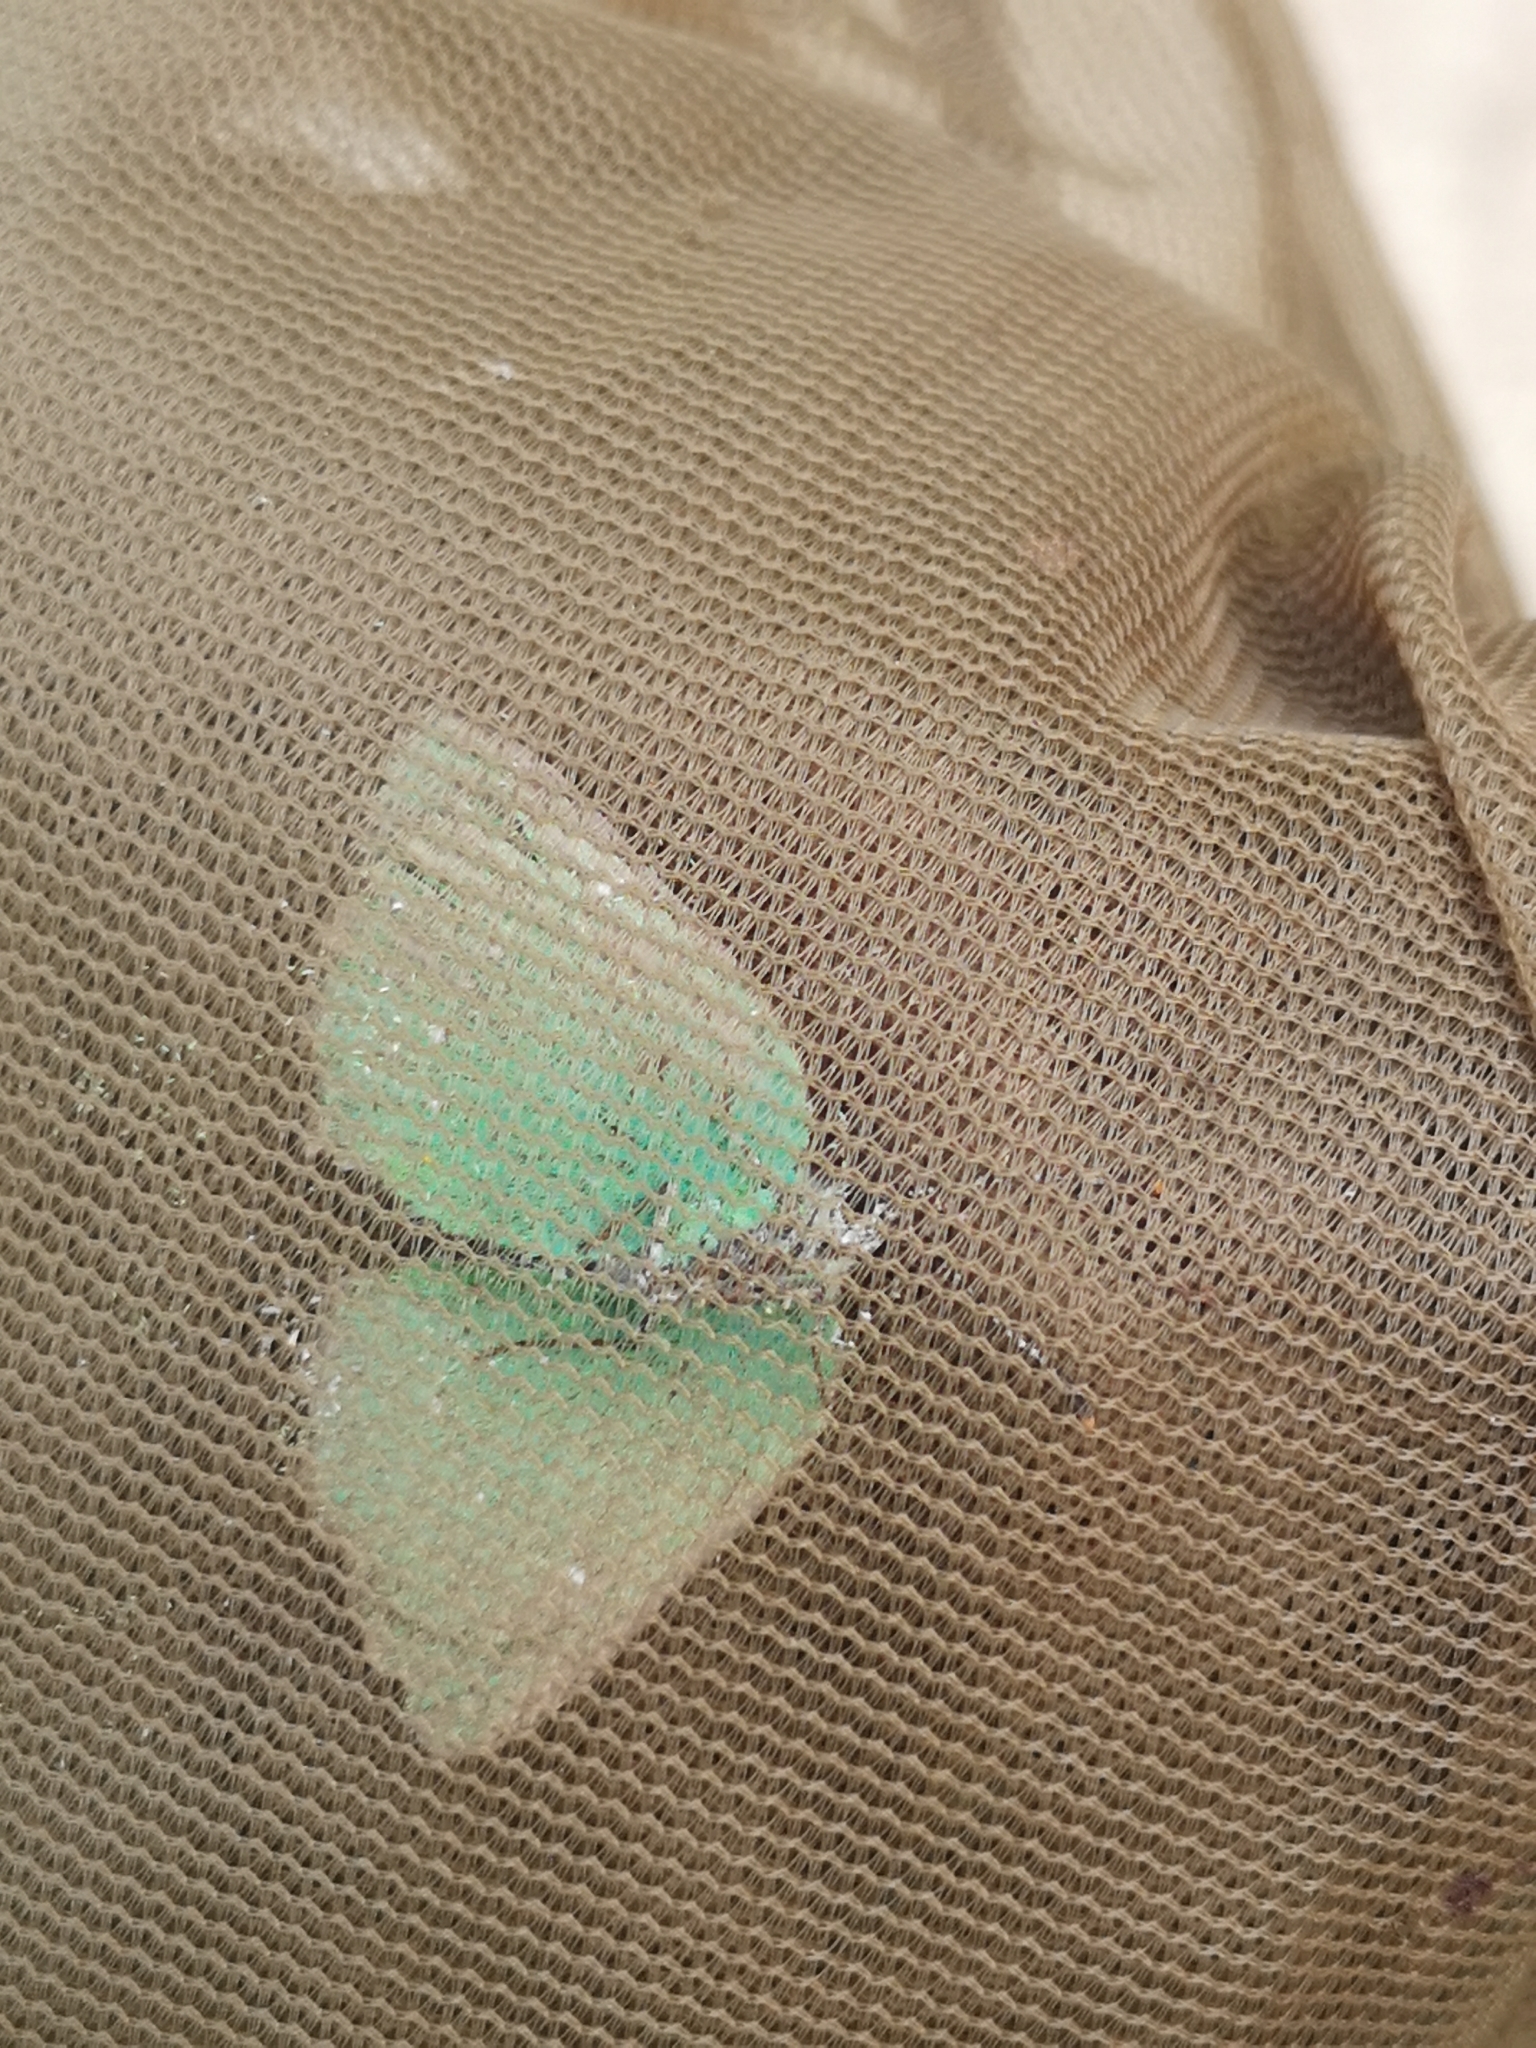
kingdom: Animalia
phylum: Arthropoda
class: Insecta
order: Lepidoptera
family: Lycaenidae
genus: Callophrys
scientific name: Callophrys rubi
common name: Green hairstreak
